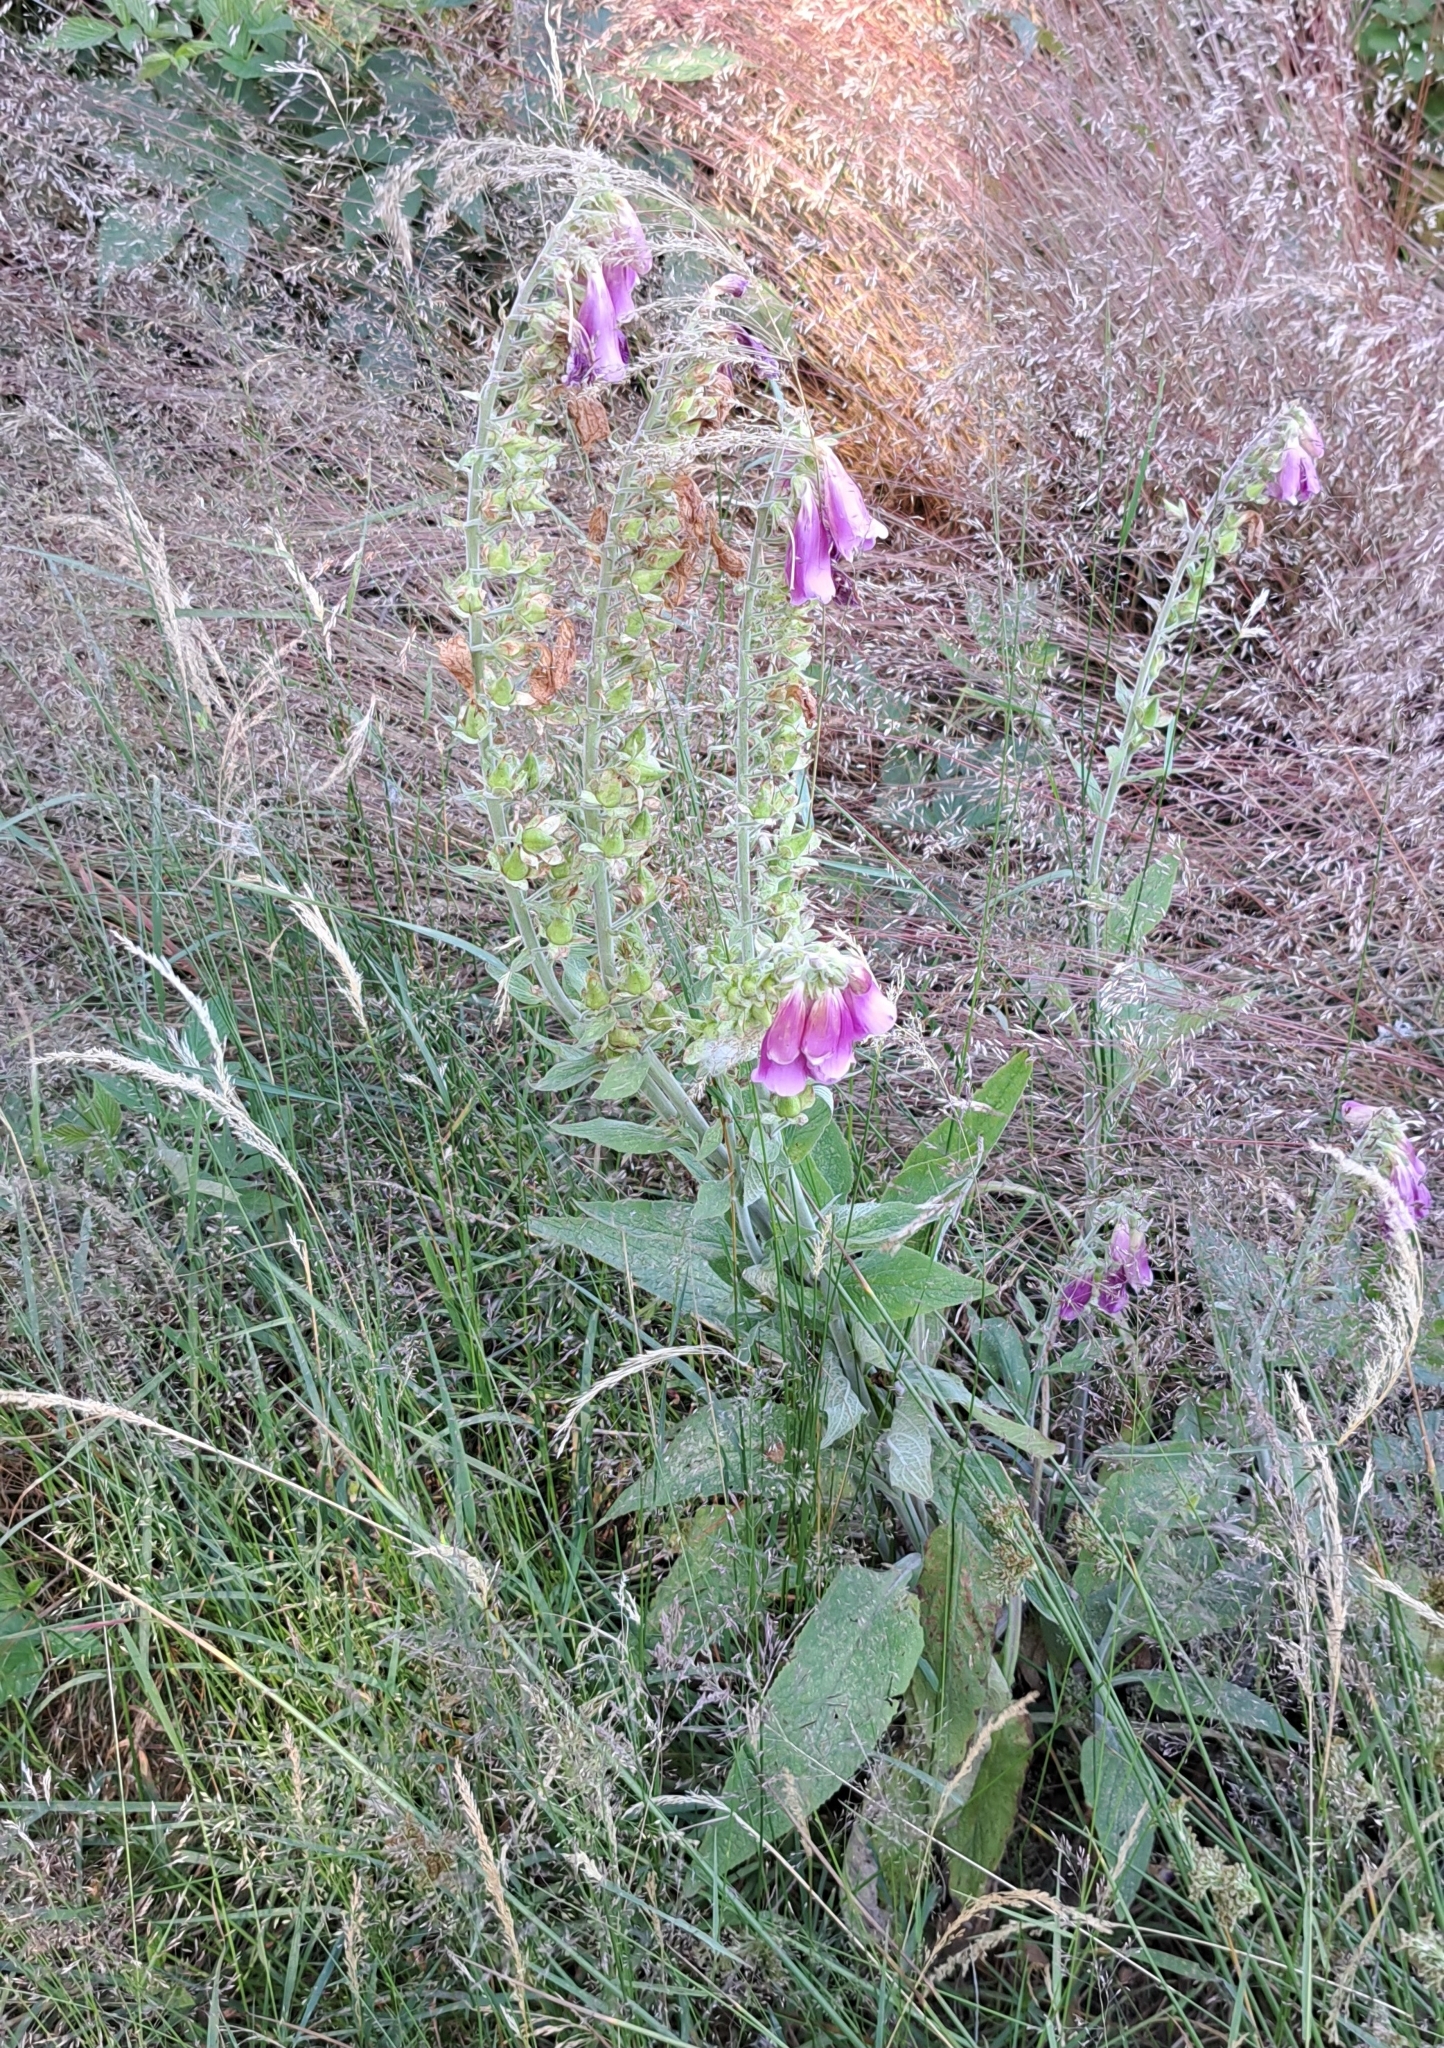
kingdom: Plantae
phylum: Tracheophyta
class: Magnoliopsida
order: Lamiales
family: Plantaginaceae
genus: Digitalis
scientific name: Digitalis purpurea
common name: Foxglove
